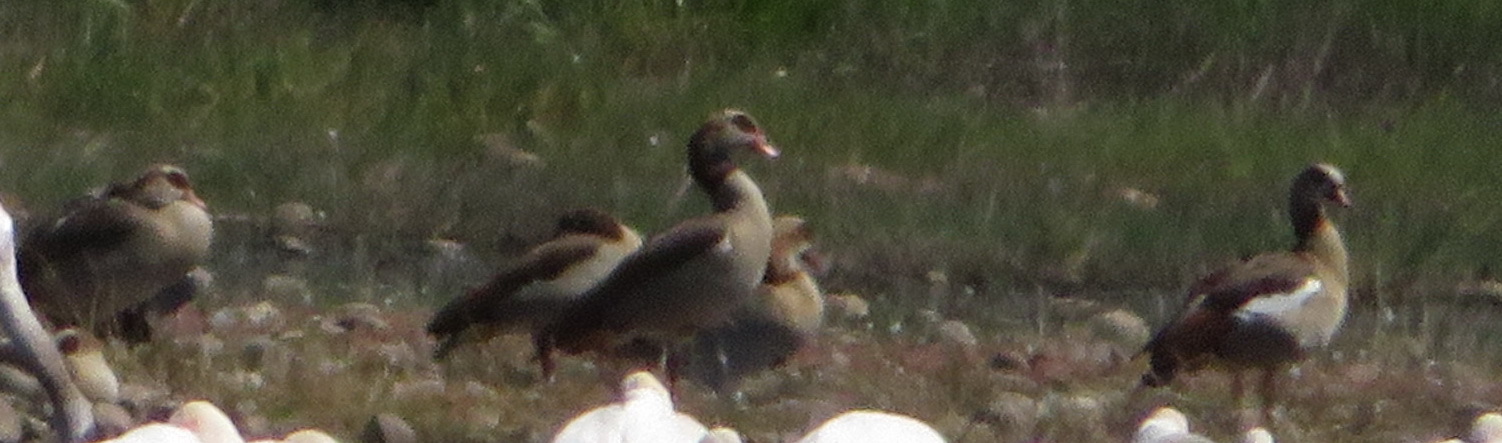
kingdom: Animalia
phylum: Chordata
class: Aves
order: Anseriformes
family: Anatidae
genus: Alopochen
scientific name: Alopochen aegyptiaca
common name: Egyptian goose
